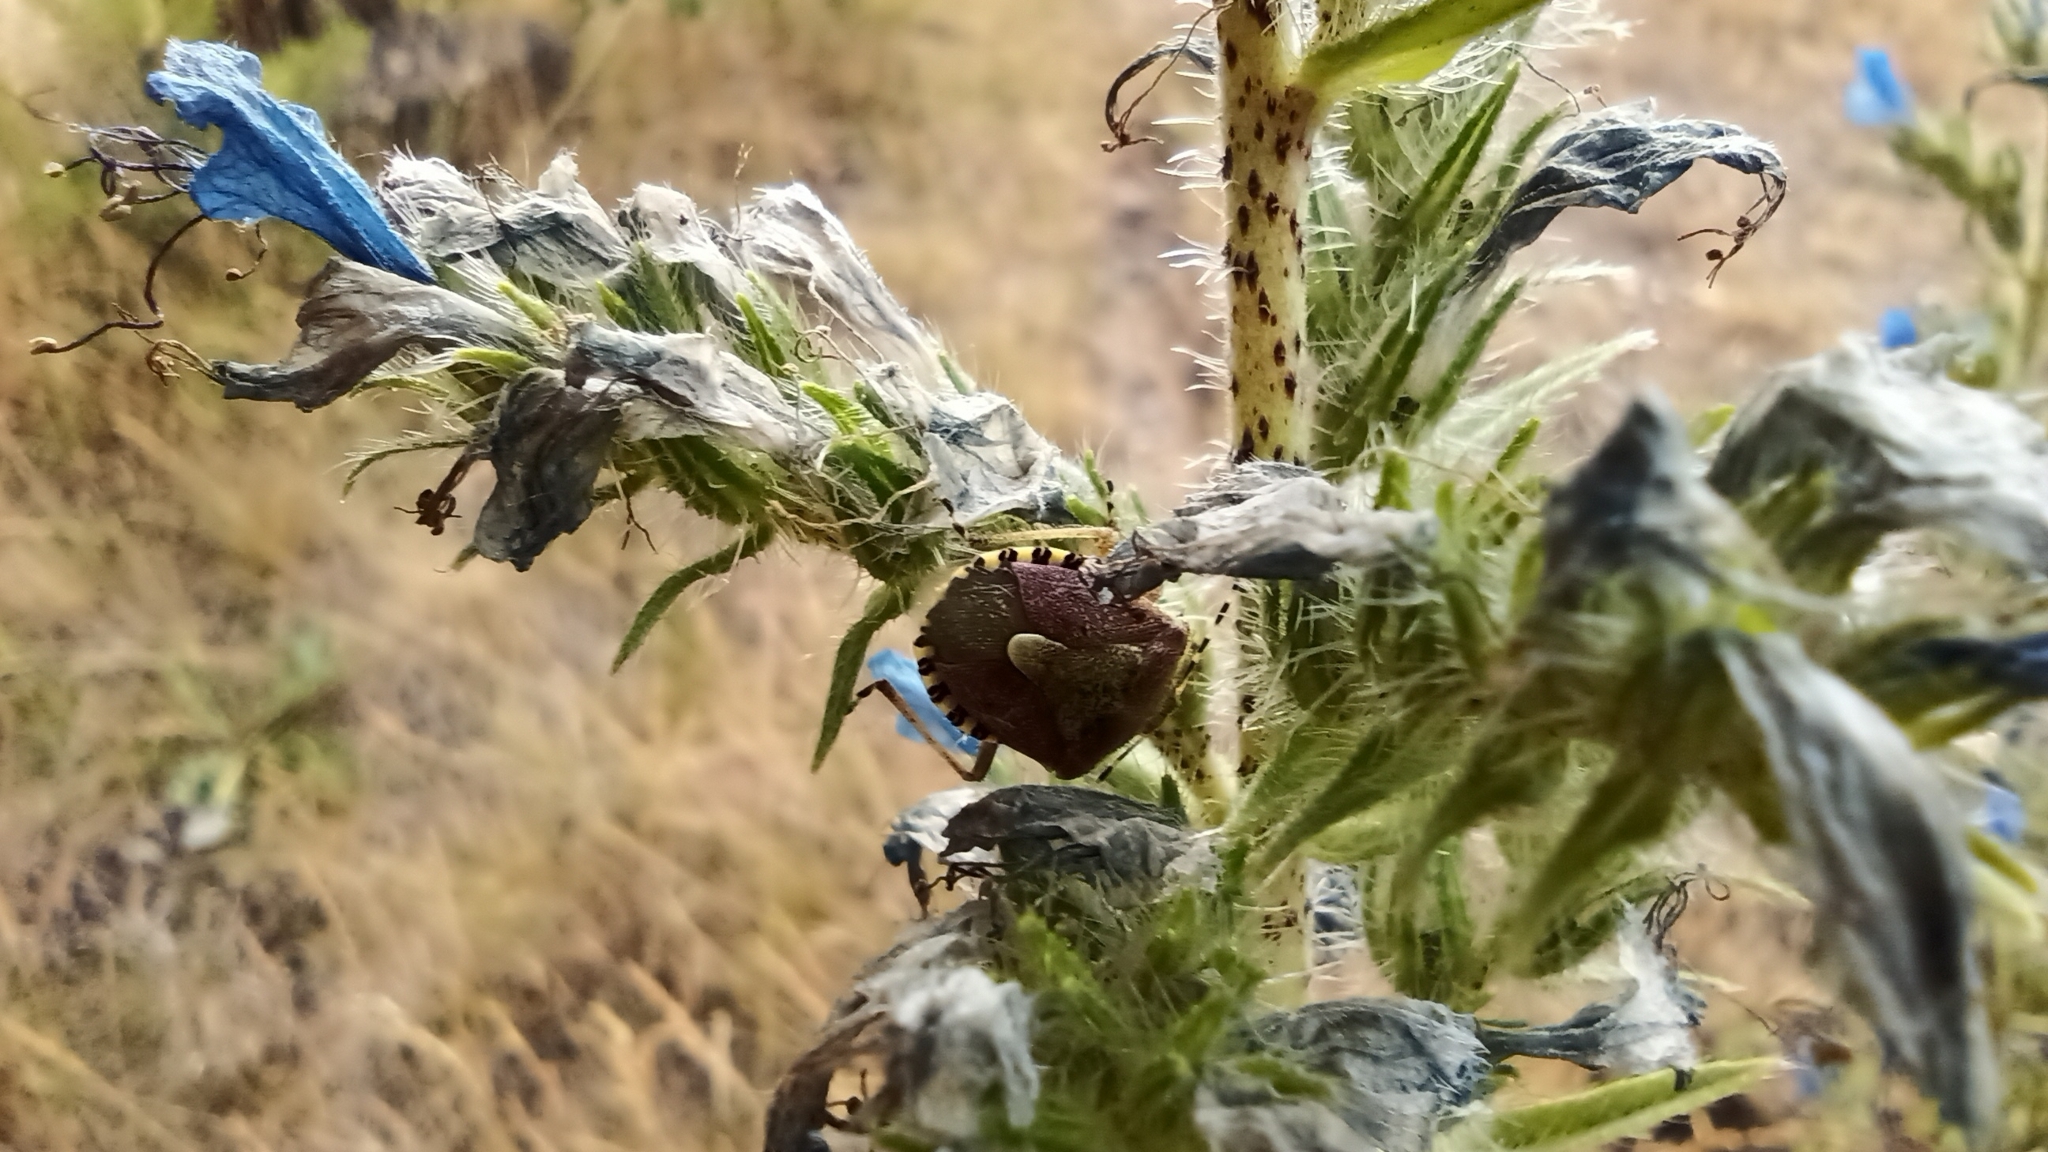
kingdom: Animalia
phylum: Arthropoda
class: Insecta
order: Hemiptera
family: Pentatomidae
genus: Dolycoris
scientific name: Dolycoris baccarum
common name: Sloe bug
